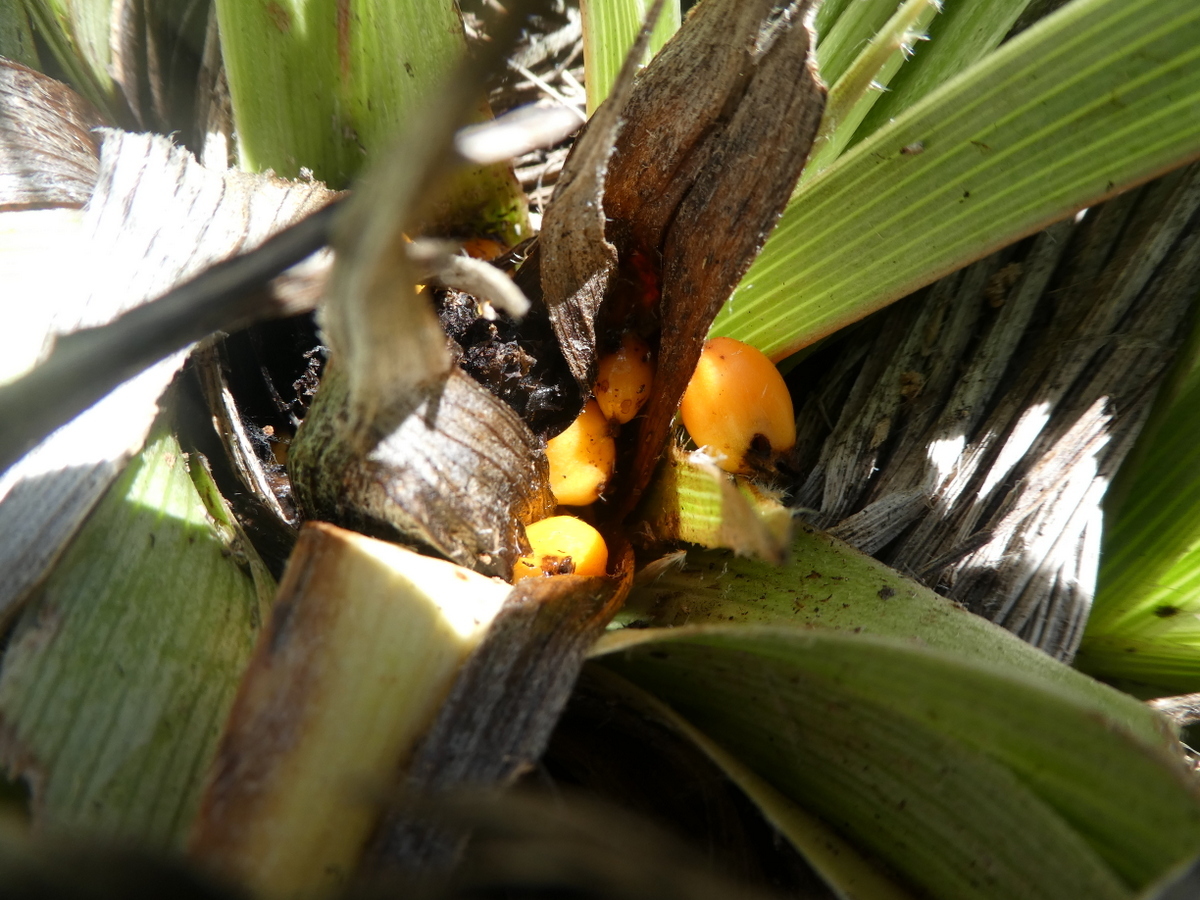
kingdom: Plantae
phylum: Tracheophyta
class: Liliopsida
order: Asparagales
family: Asteliaceae
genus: Astelia
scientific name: Astelia petriei
